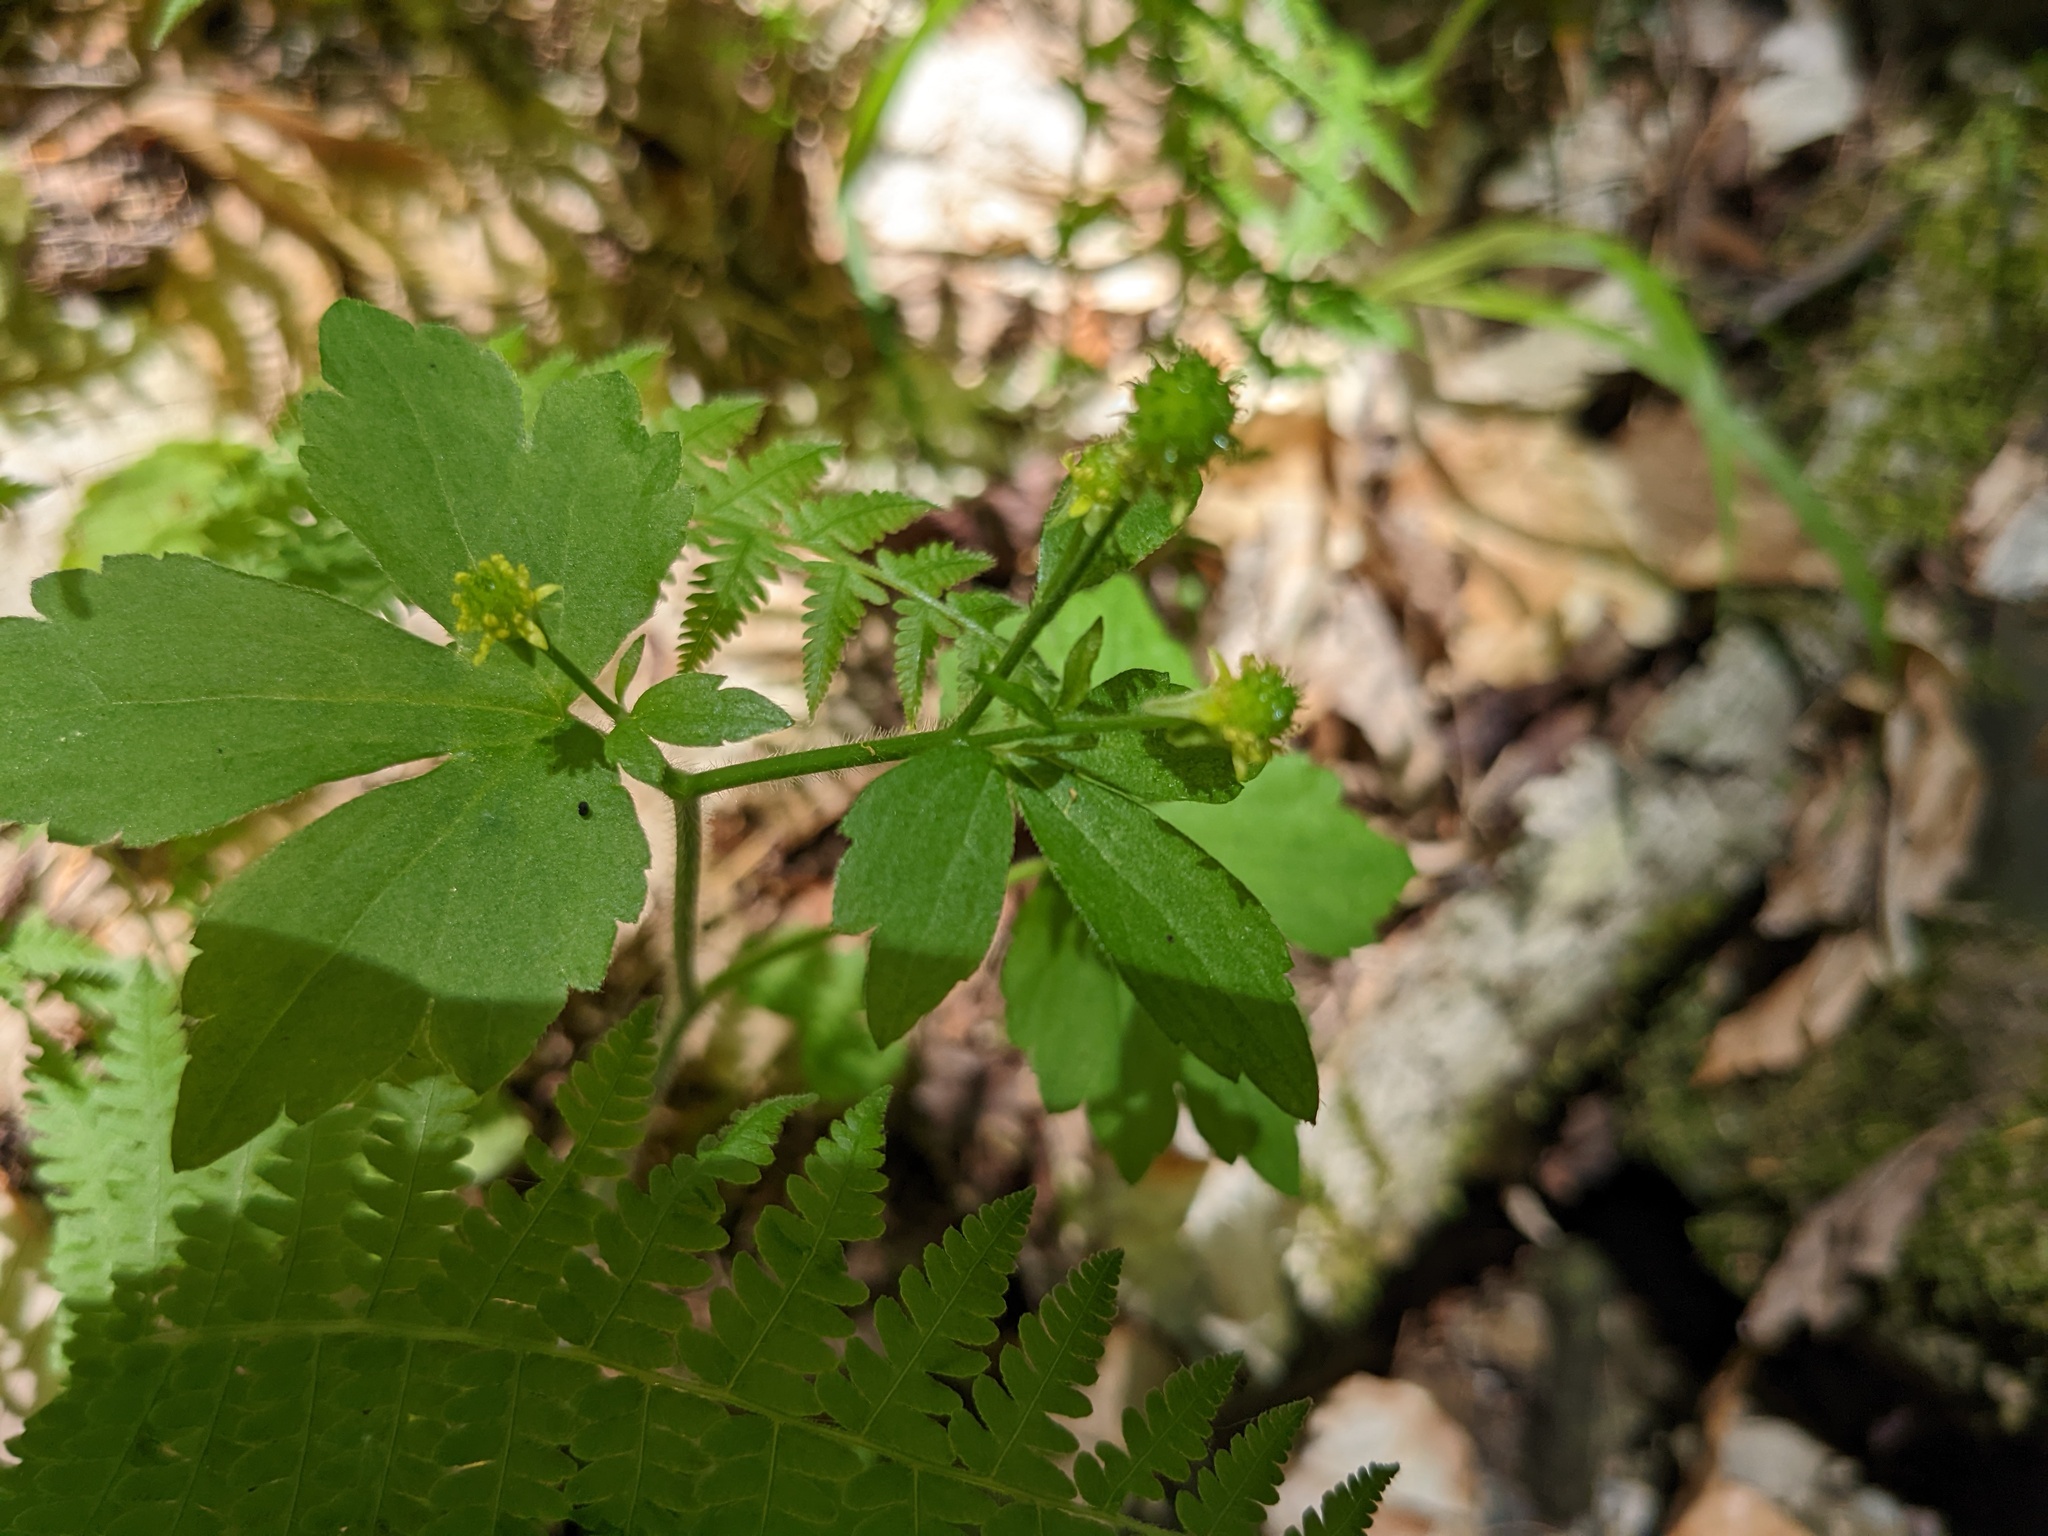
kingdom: Plantae
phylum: Tracheophyta
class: Magnoliopsida
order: Ranunculales
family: Ranunculaceae
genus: Ranunculus
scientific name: Ranunculus recurvatus
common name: Blisterwort
